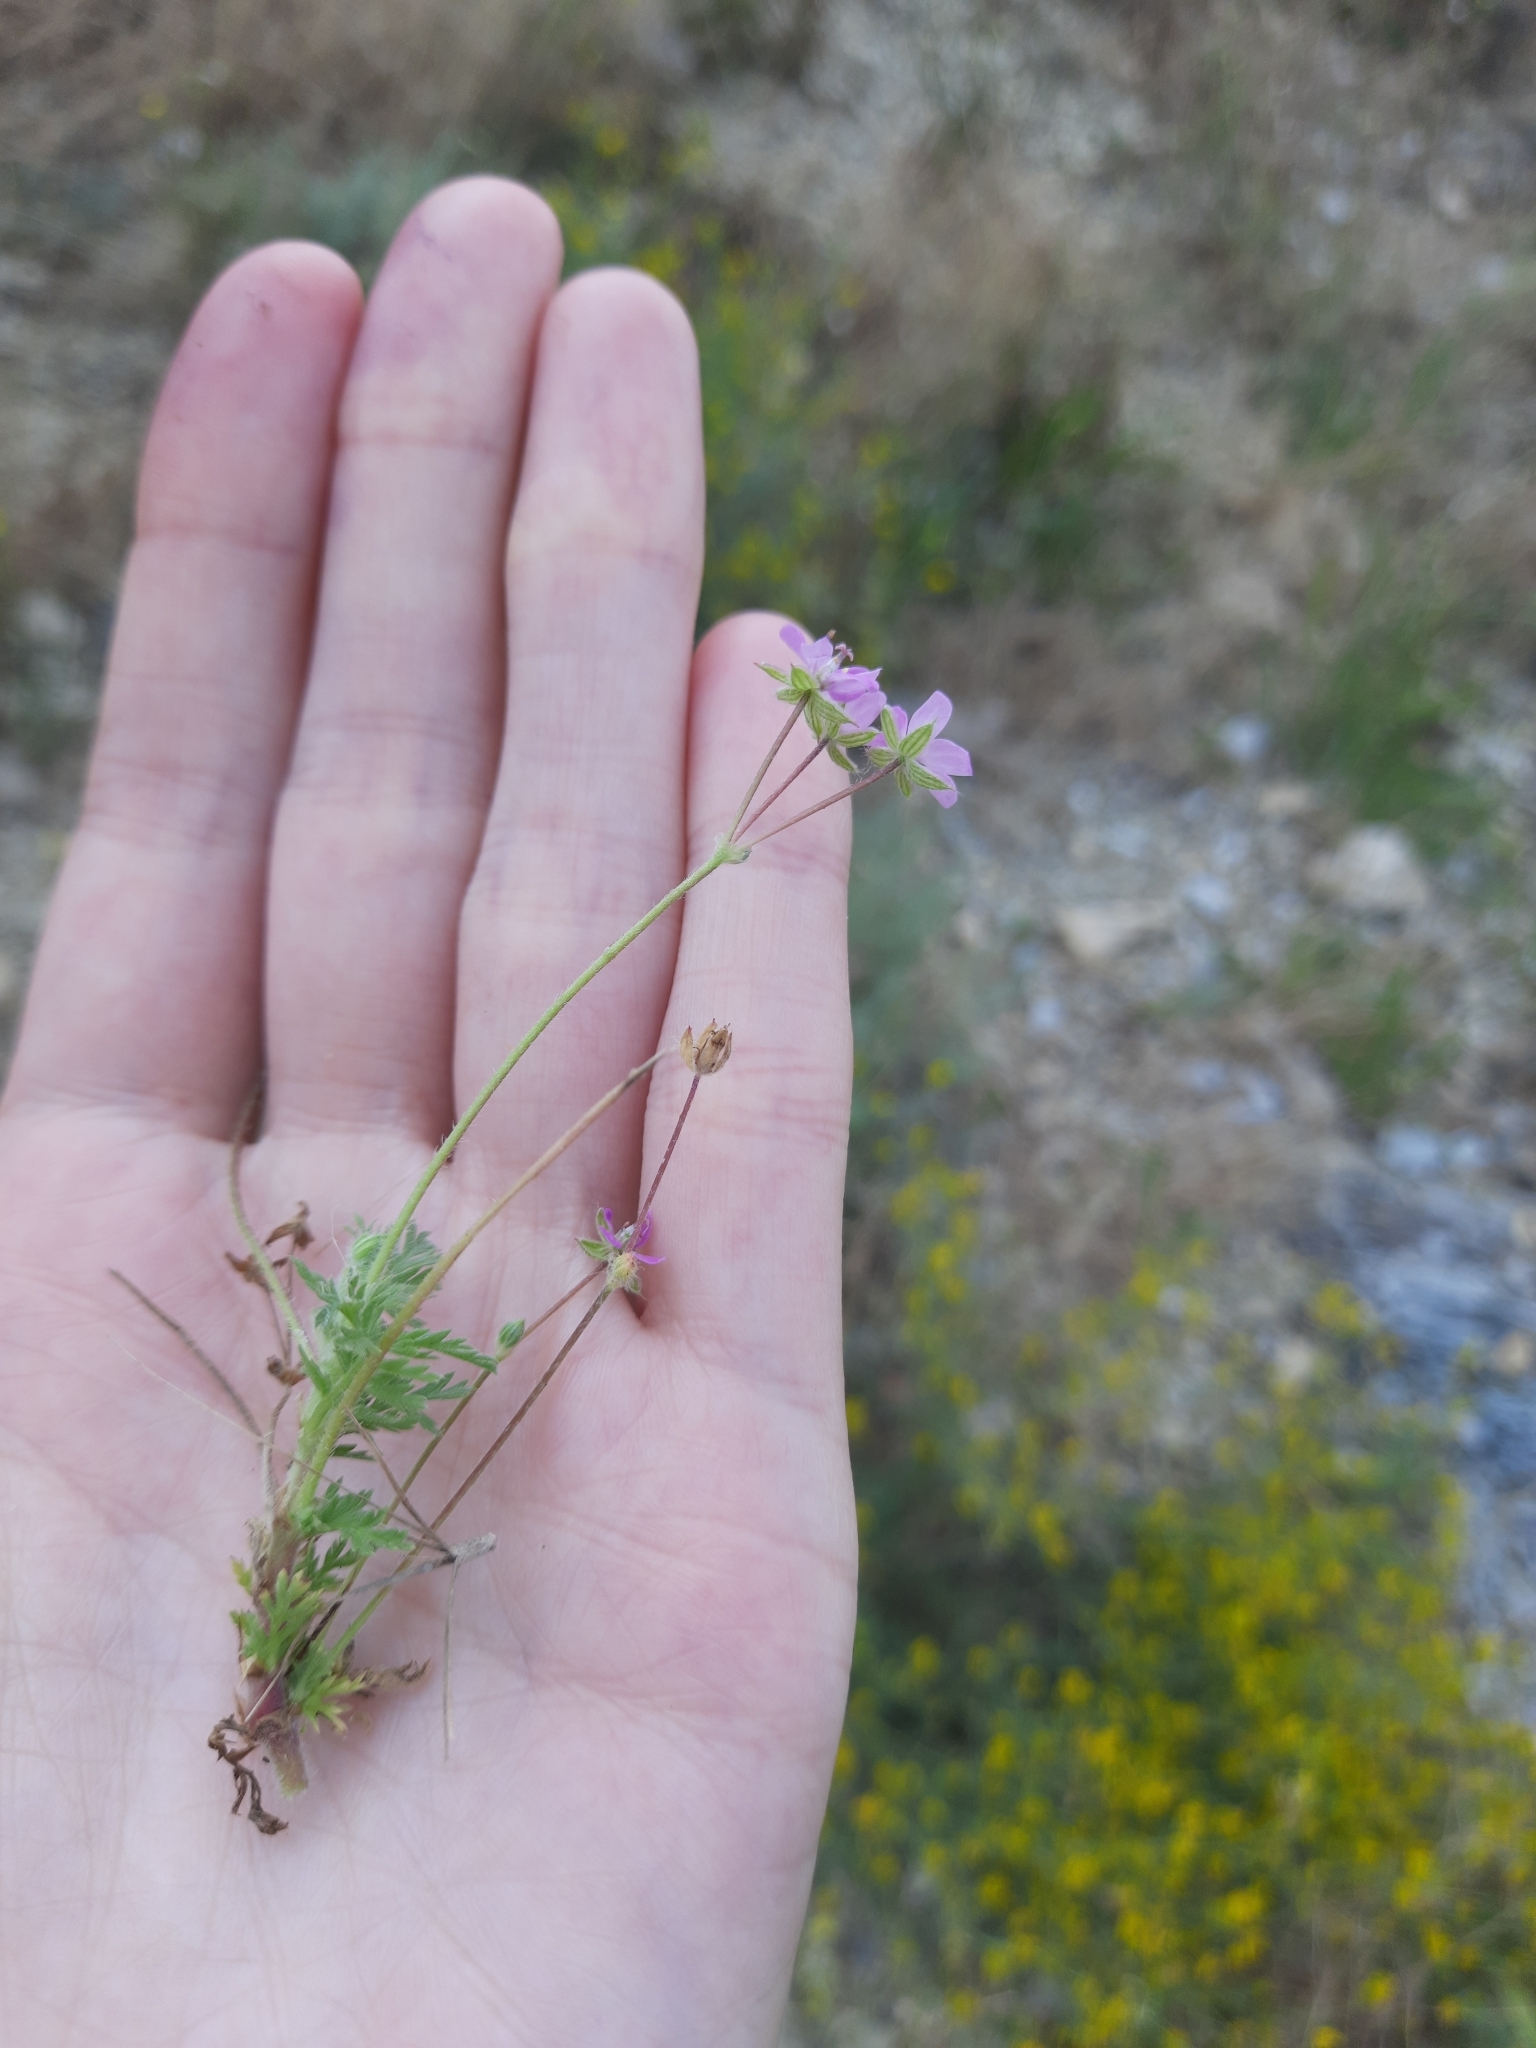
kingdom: Plantae
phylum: Tracheophyta
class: Magnoliopsida
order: Geraniales
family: Geraniaceae
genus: Erodium
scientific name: Erodium cicutarium
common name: Common stork's-bill
